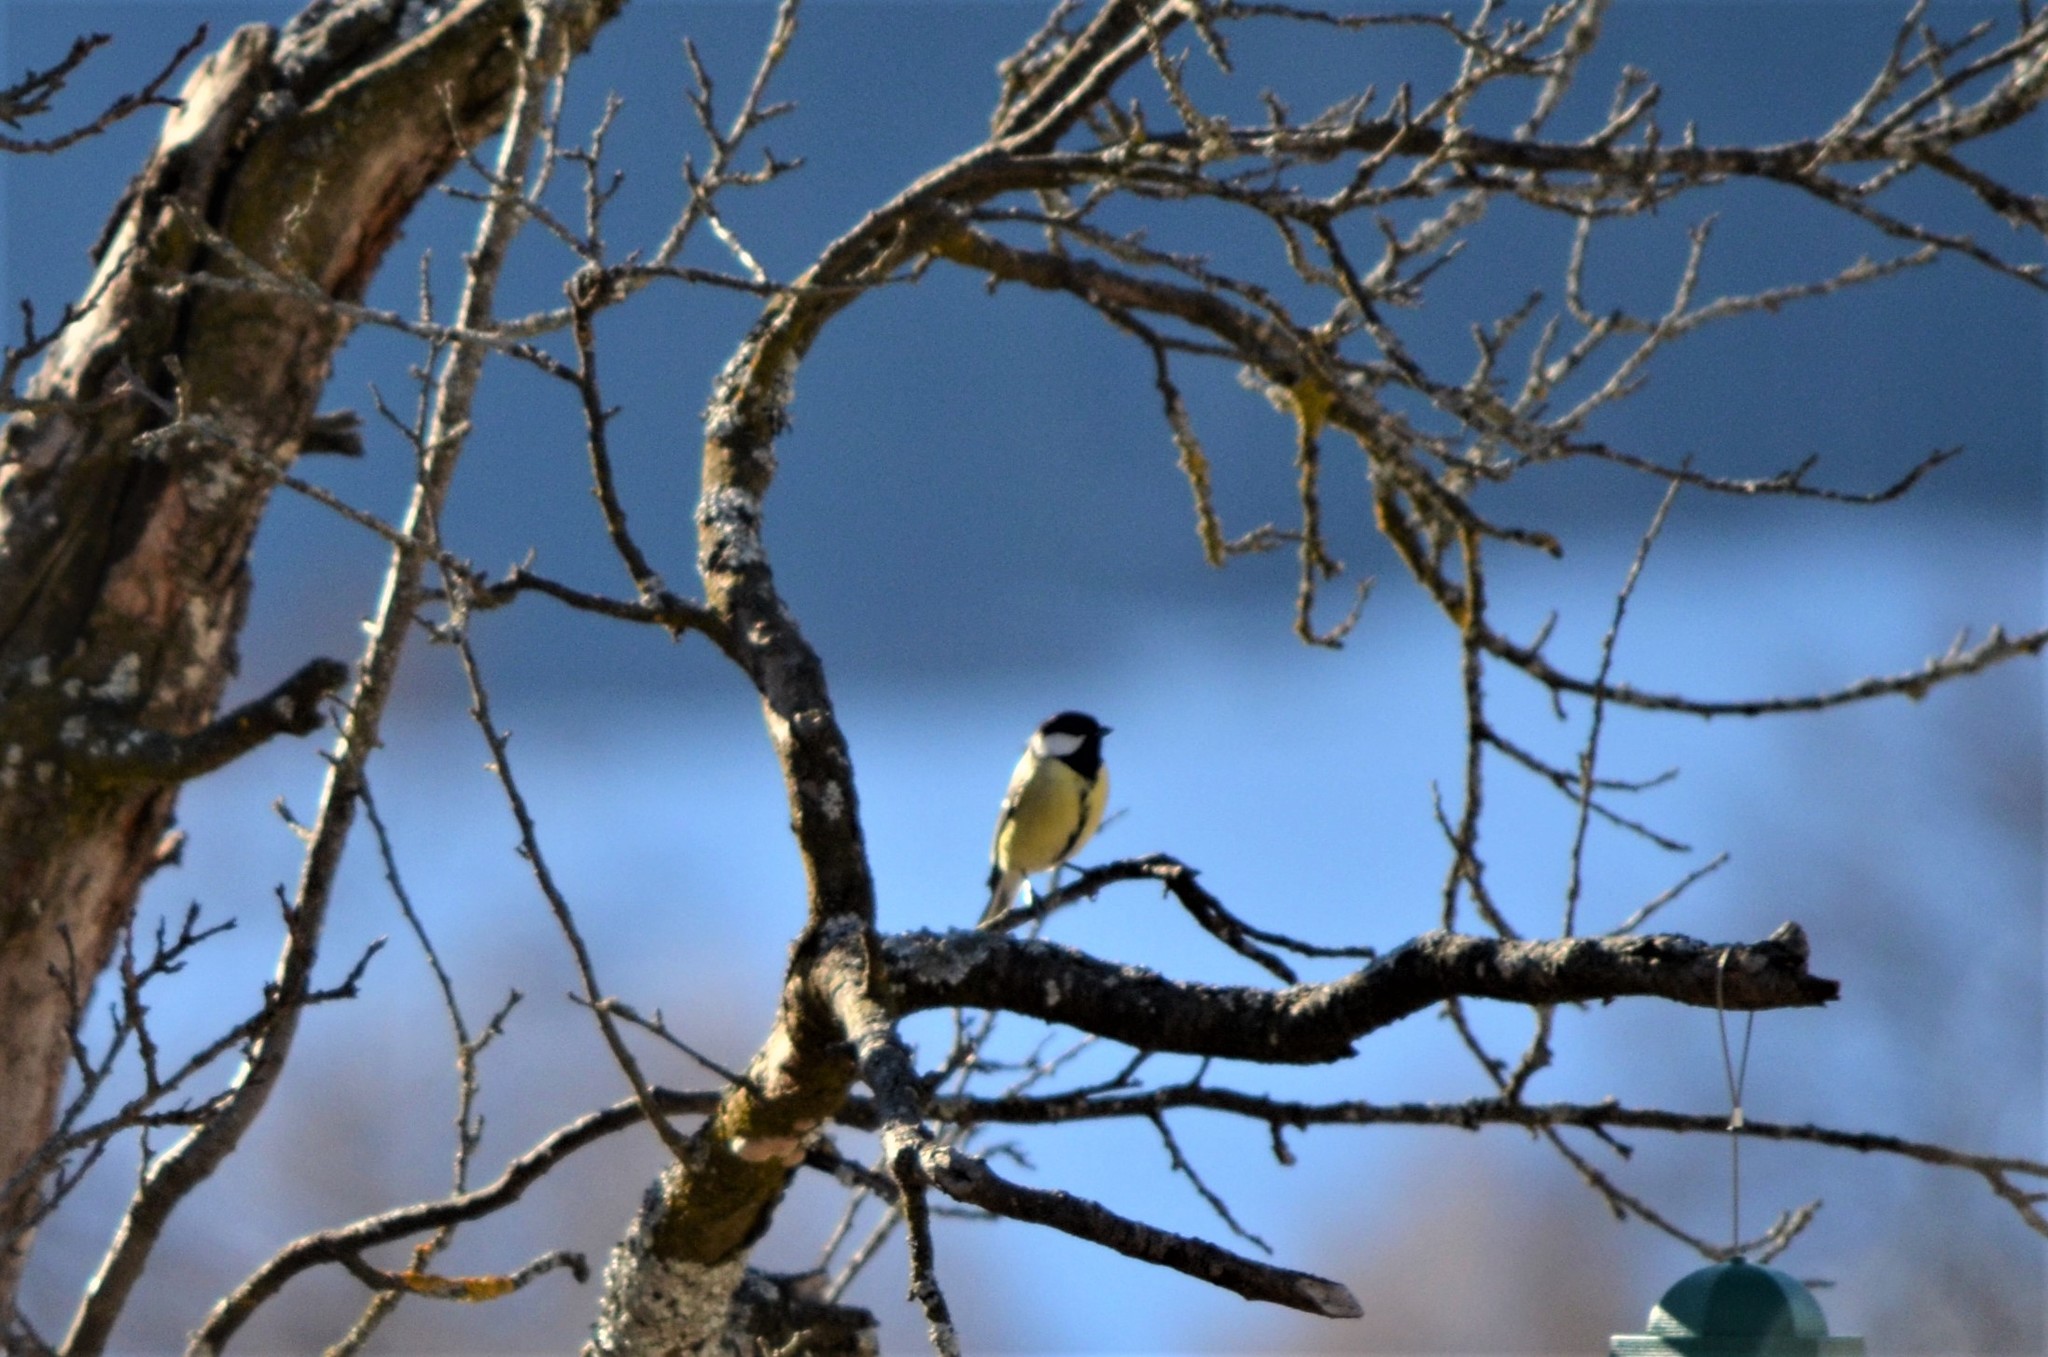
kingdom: Animalia
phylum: Chordata
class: Aves
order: Passeriformes
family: Paridae
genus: Parus
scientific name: Parus major
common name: Great tit
